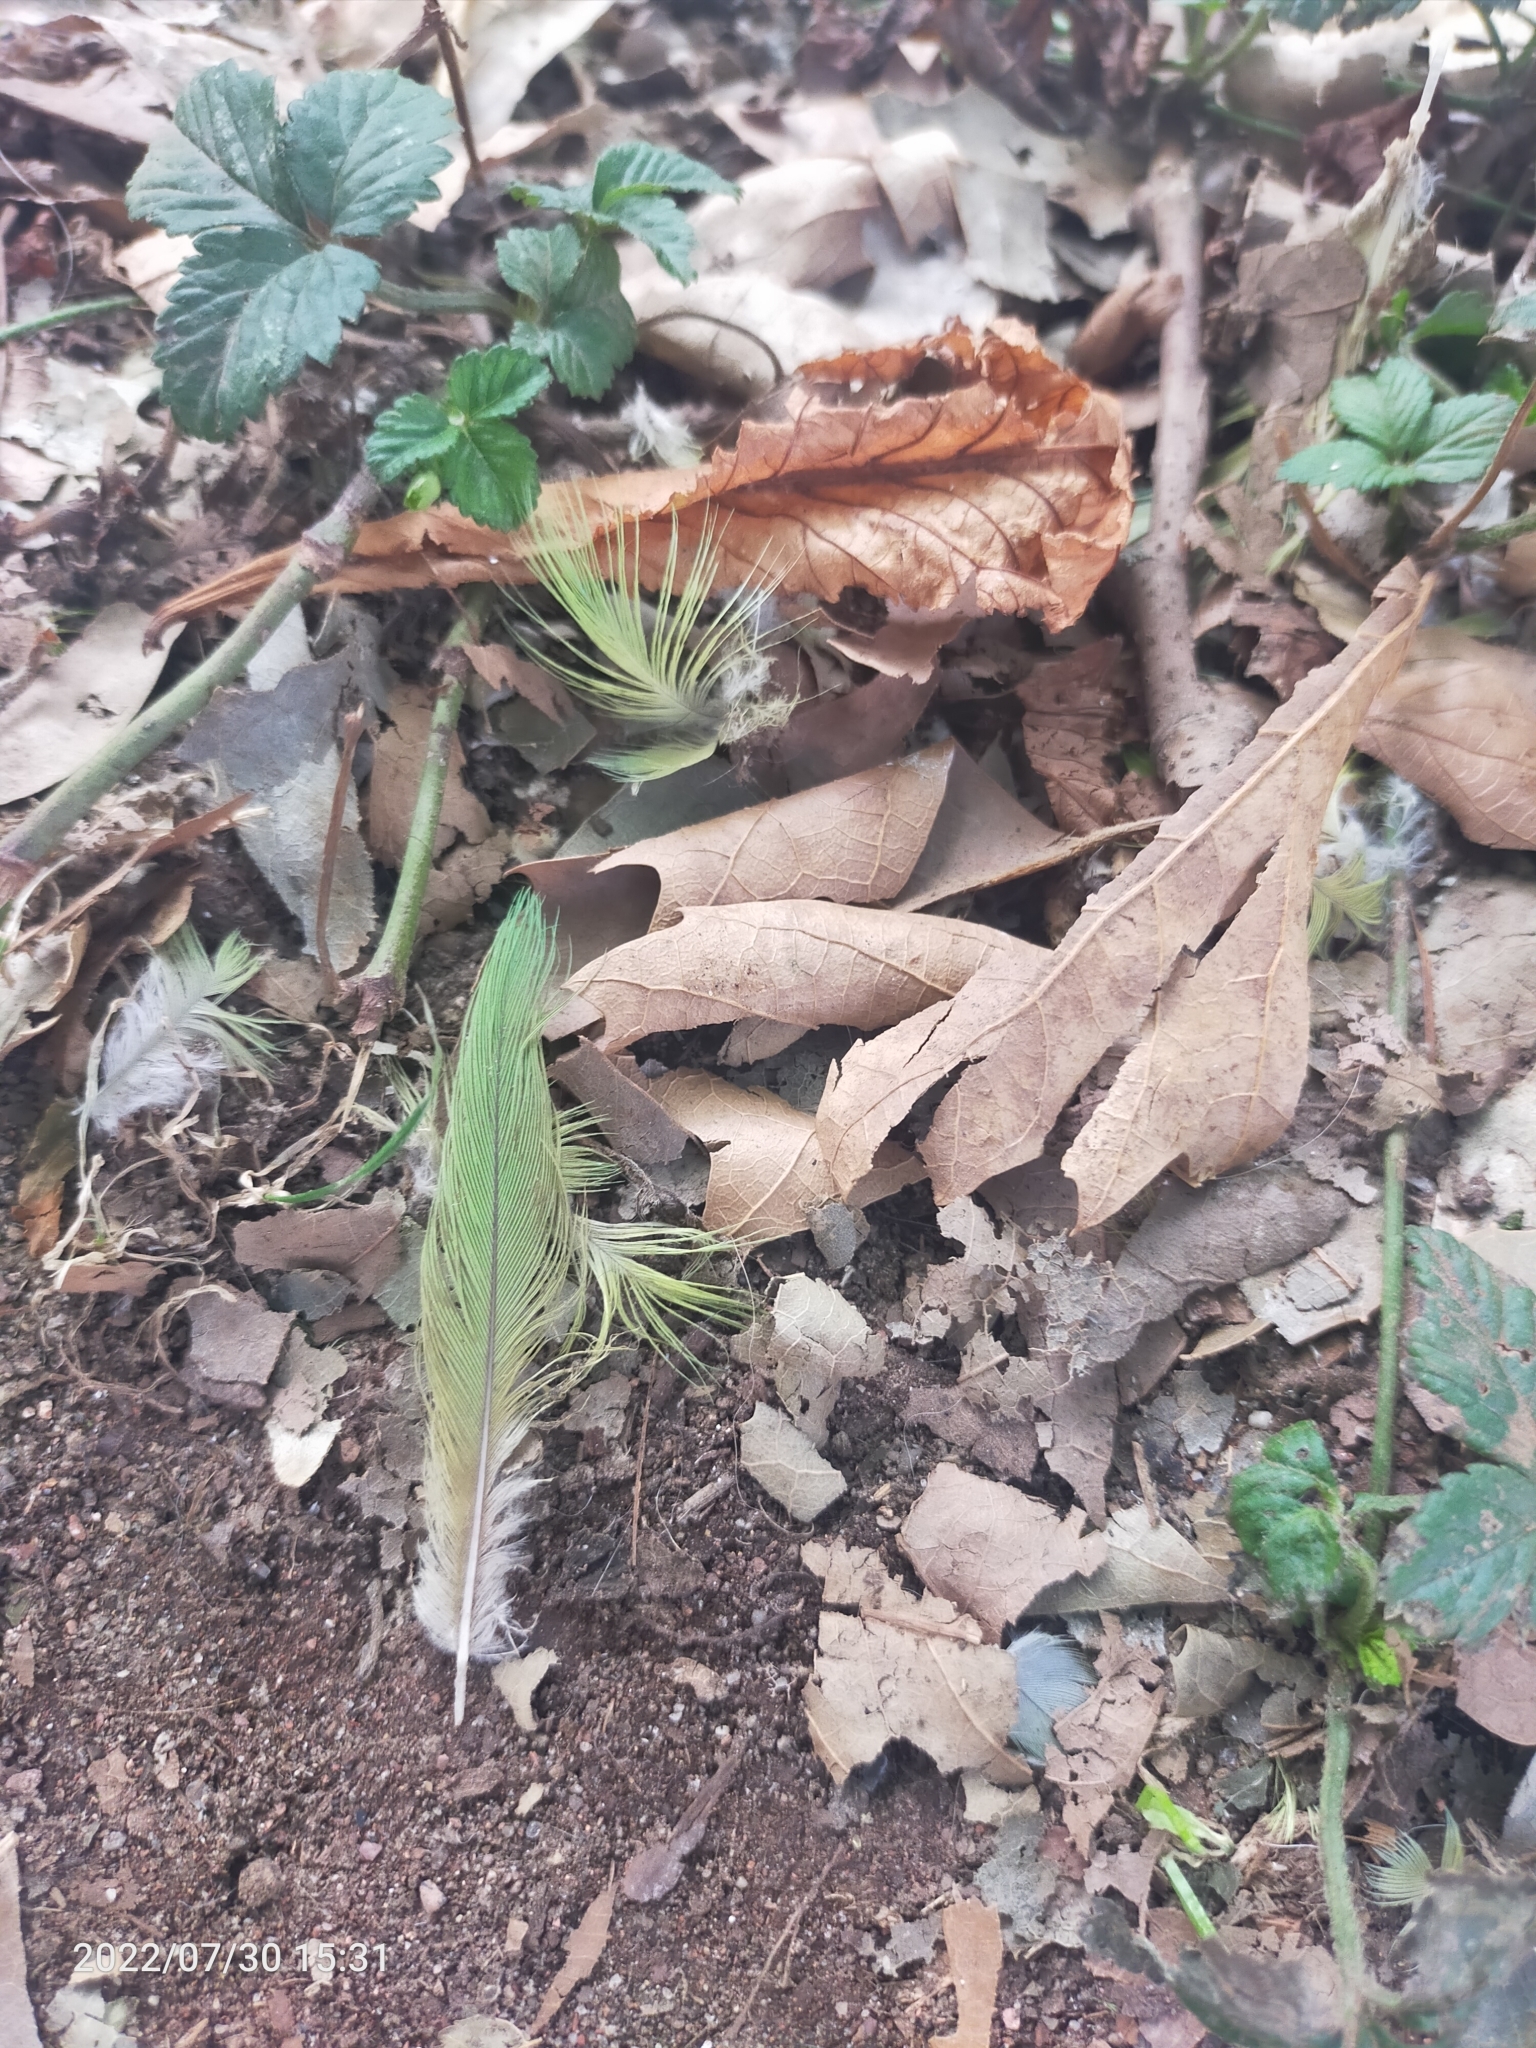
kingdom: Animalia
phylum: Chordata
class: Aves
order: Psittaciformes
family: Psittacidae
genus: Psittacula
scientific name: Psittacula
